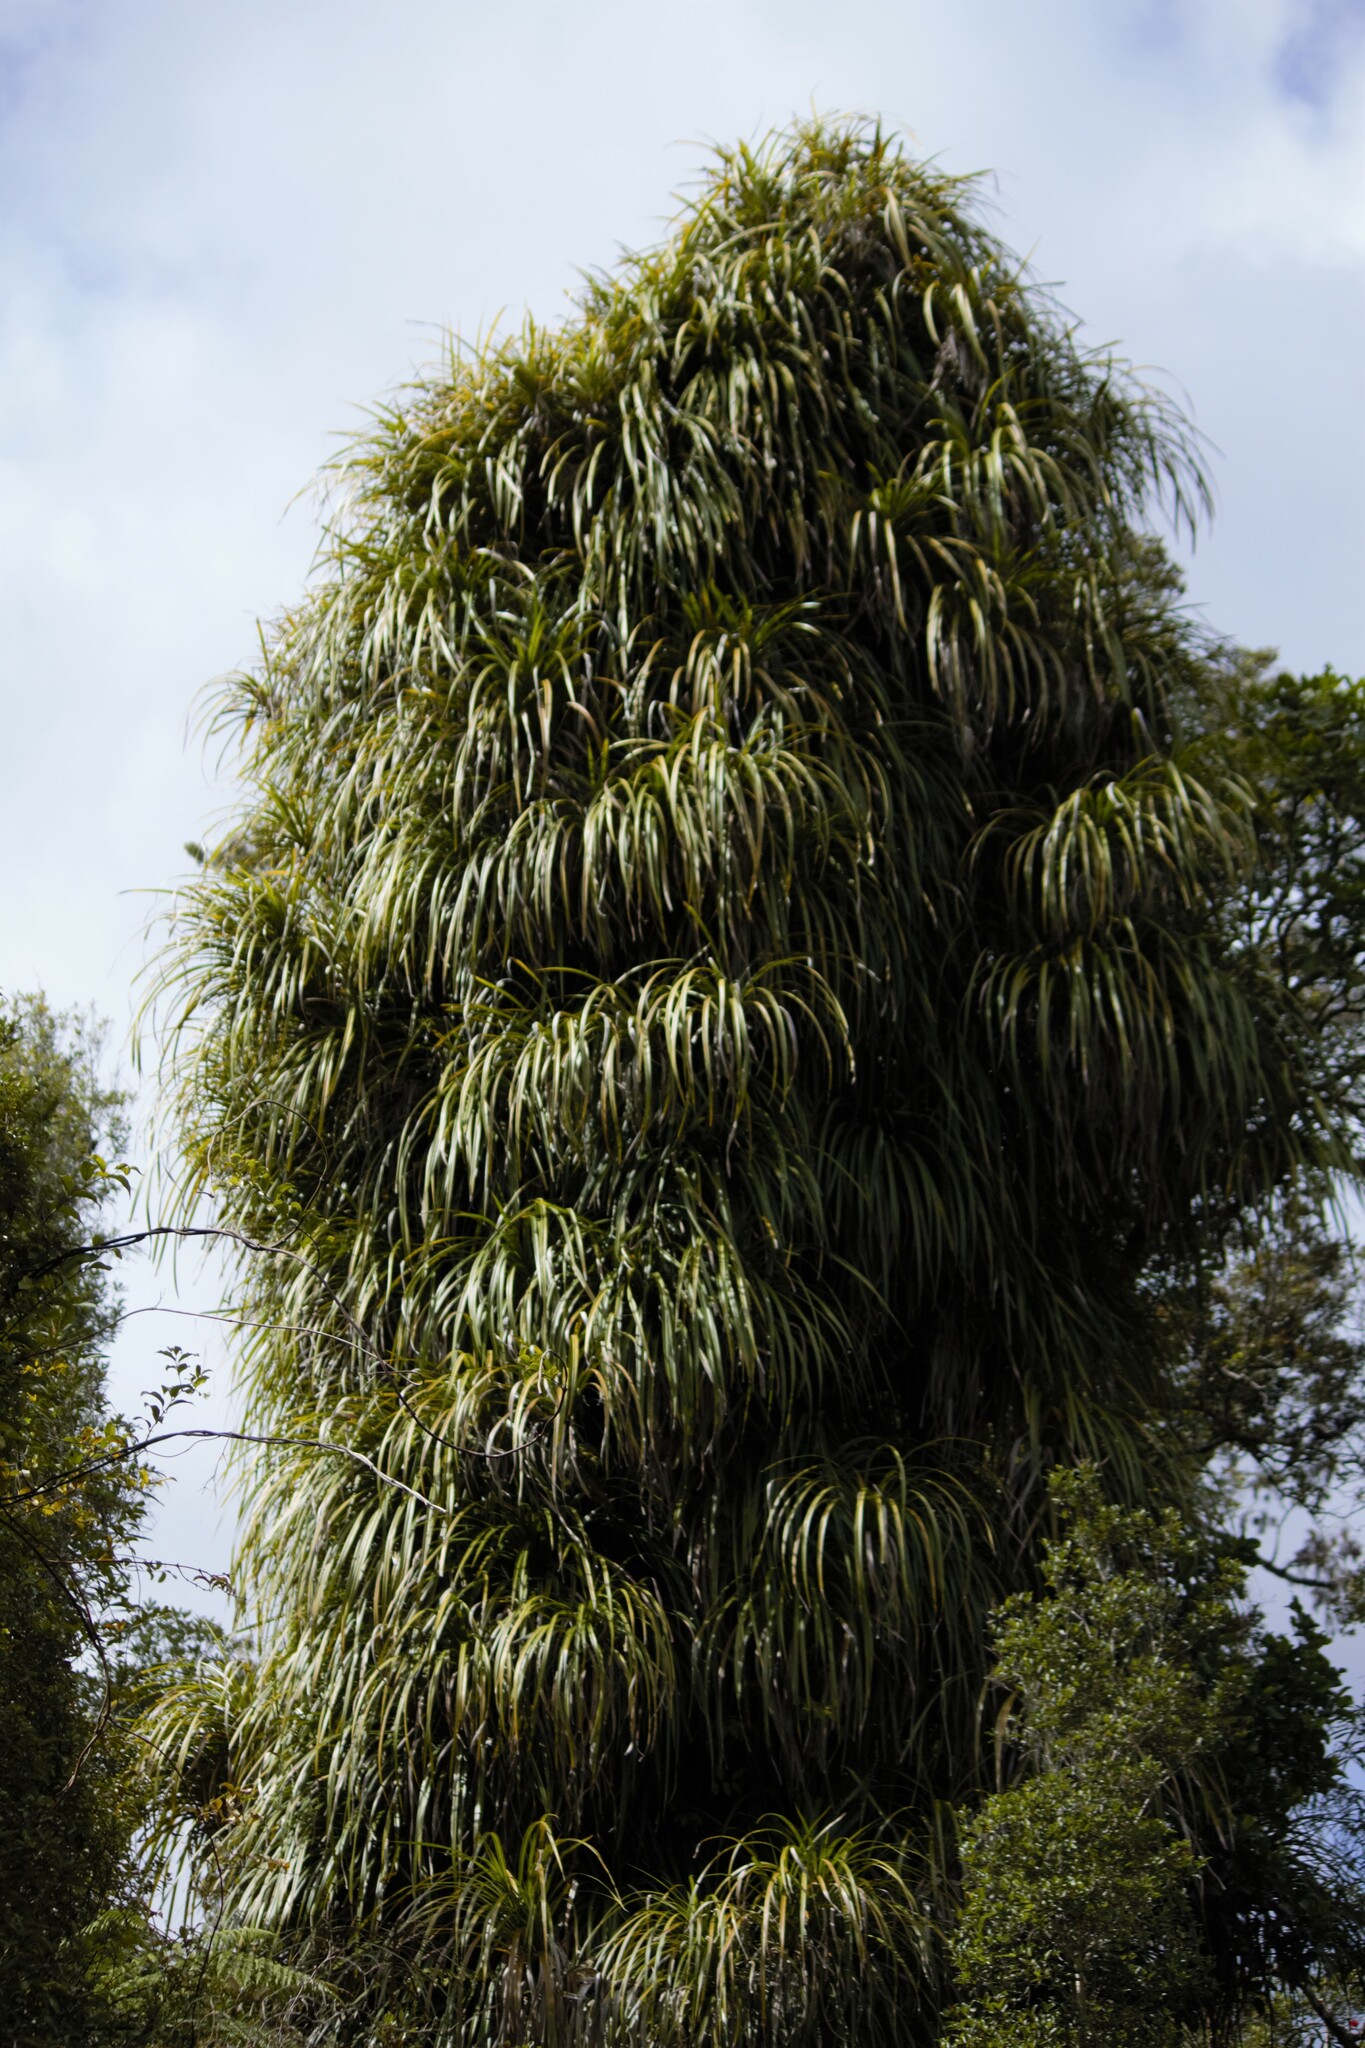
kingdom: Plantae
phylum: Tracheophyta
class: Liliopsida
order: Pandanales
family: Pandanaceae
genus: Freycinetia
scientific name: Freycinetia banksii
